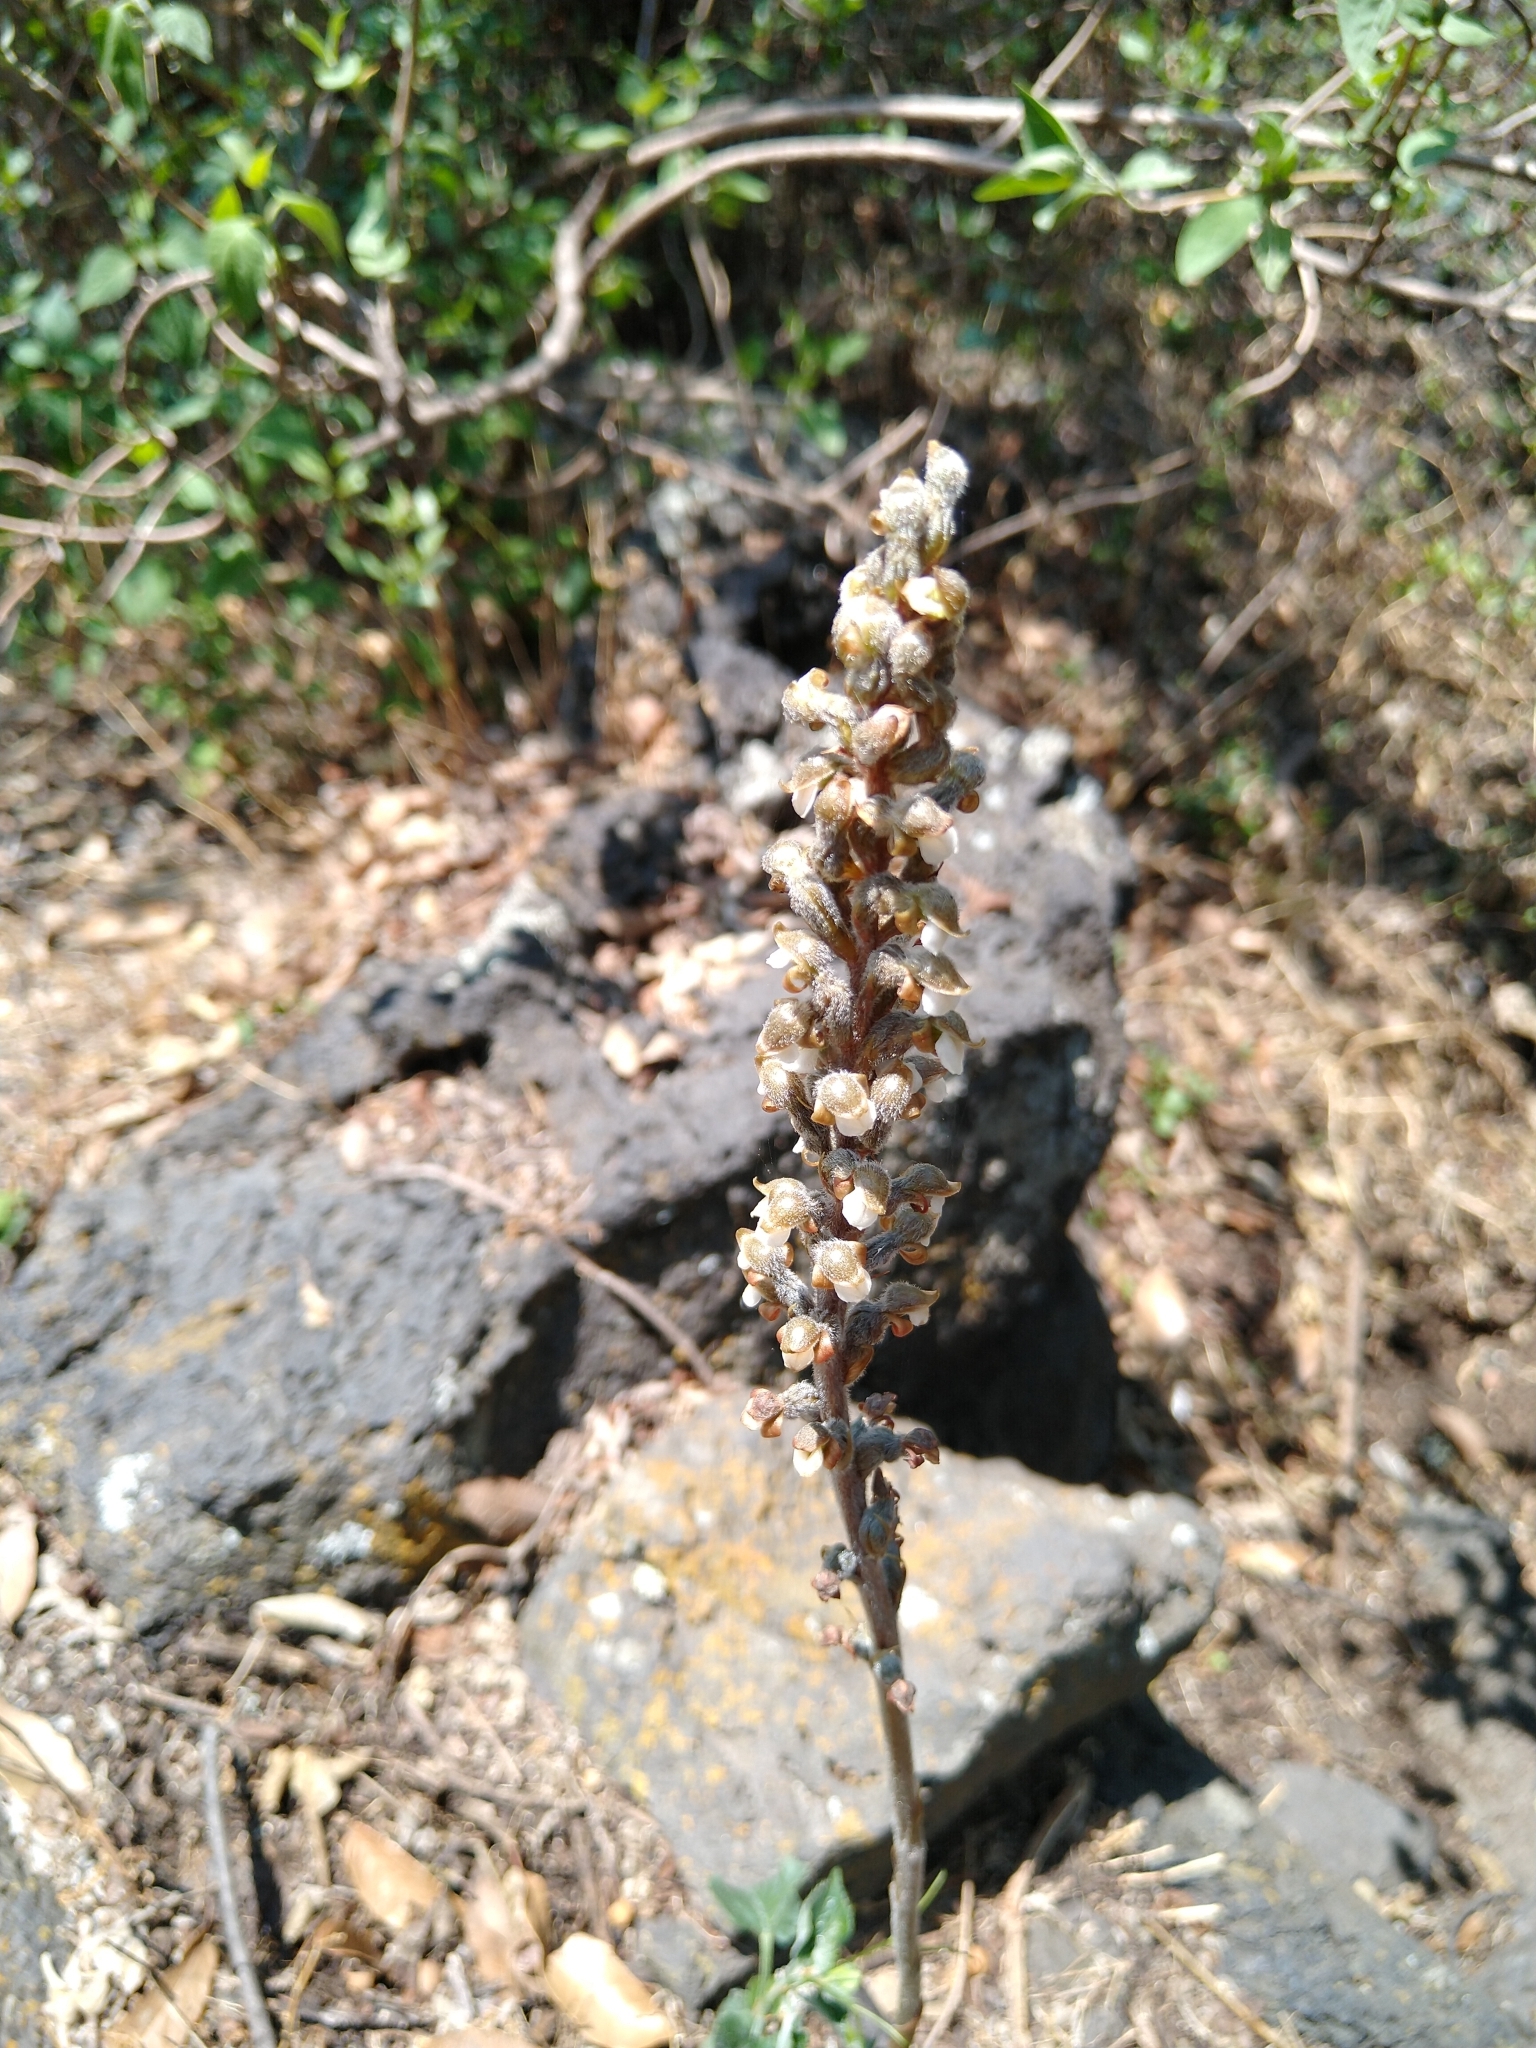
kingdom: Plantae
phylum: Tracheophyta
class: Liliopsida
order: Asparagales
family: Orchidaceae
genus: Sarcoglottis
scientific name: Sarcoglottis schaffneri
